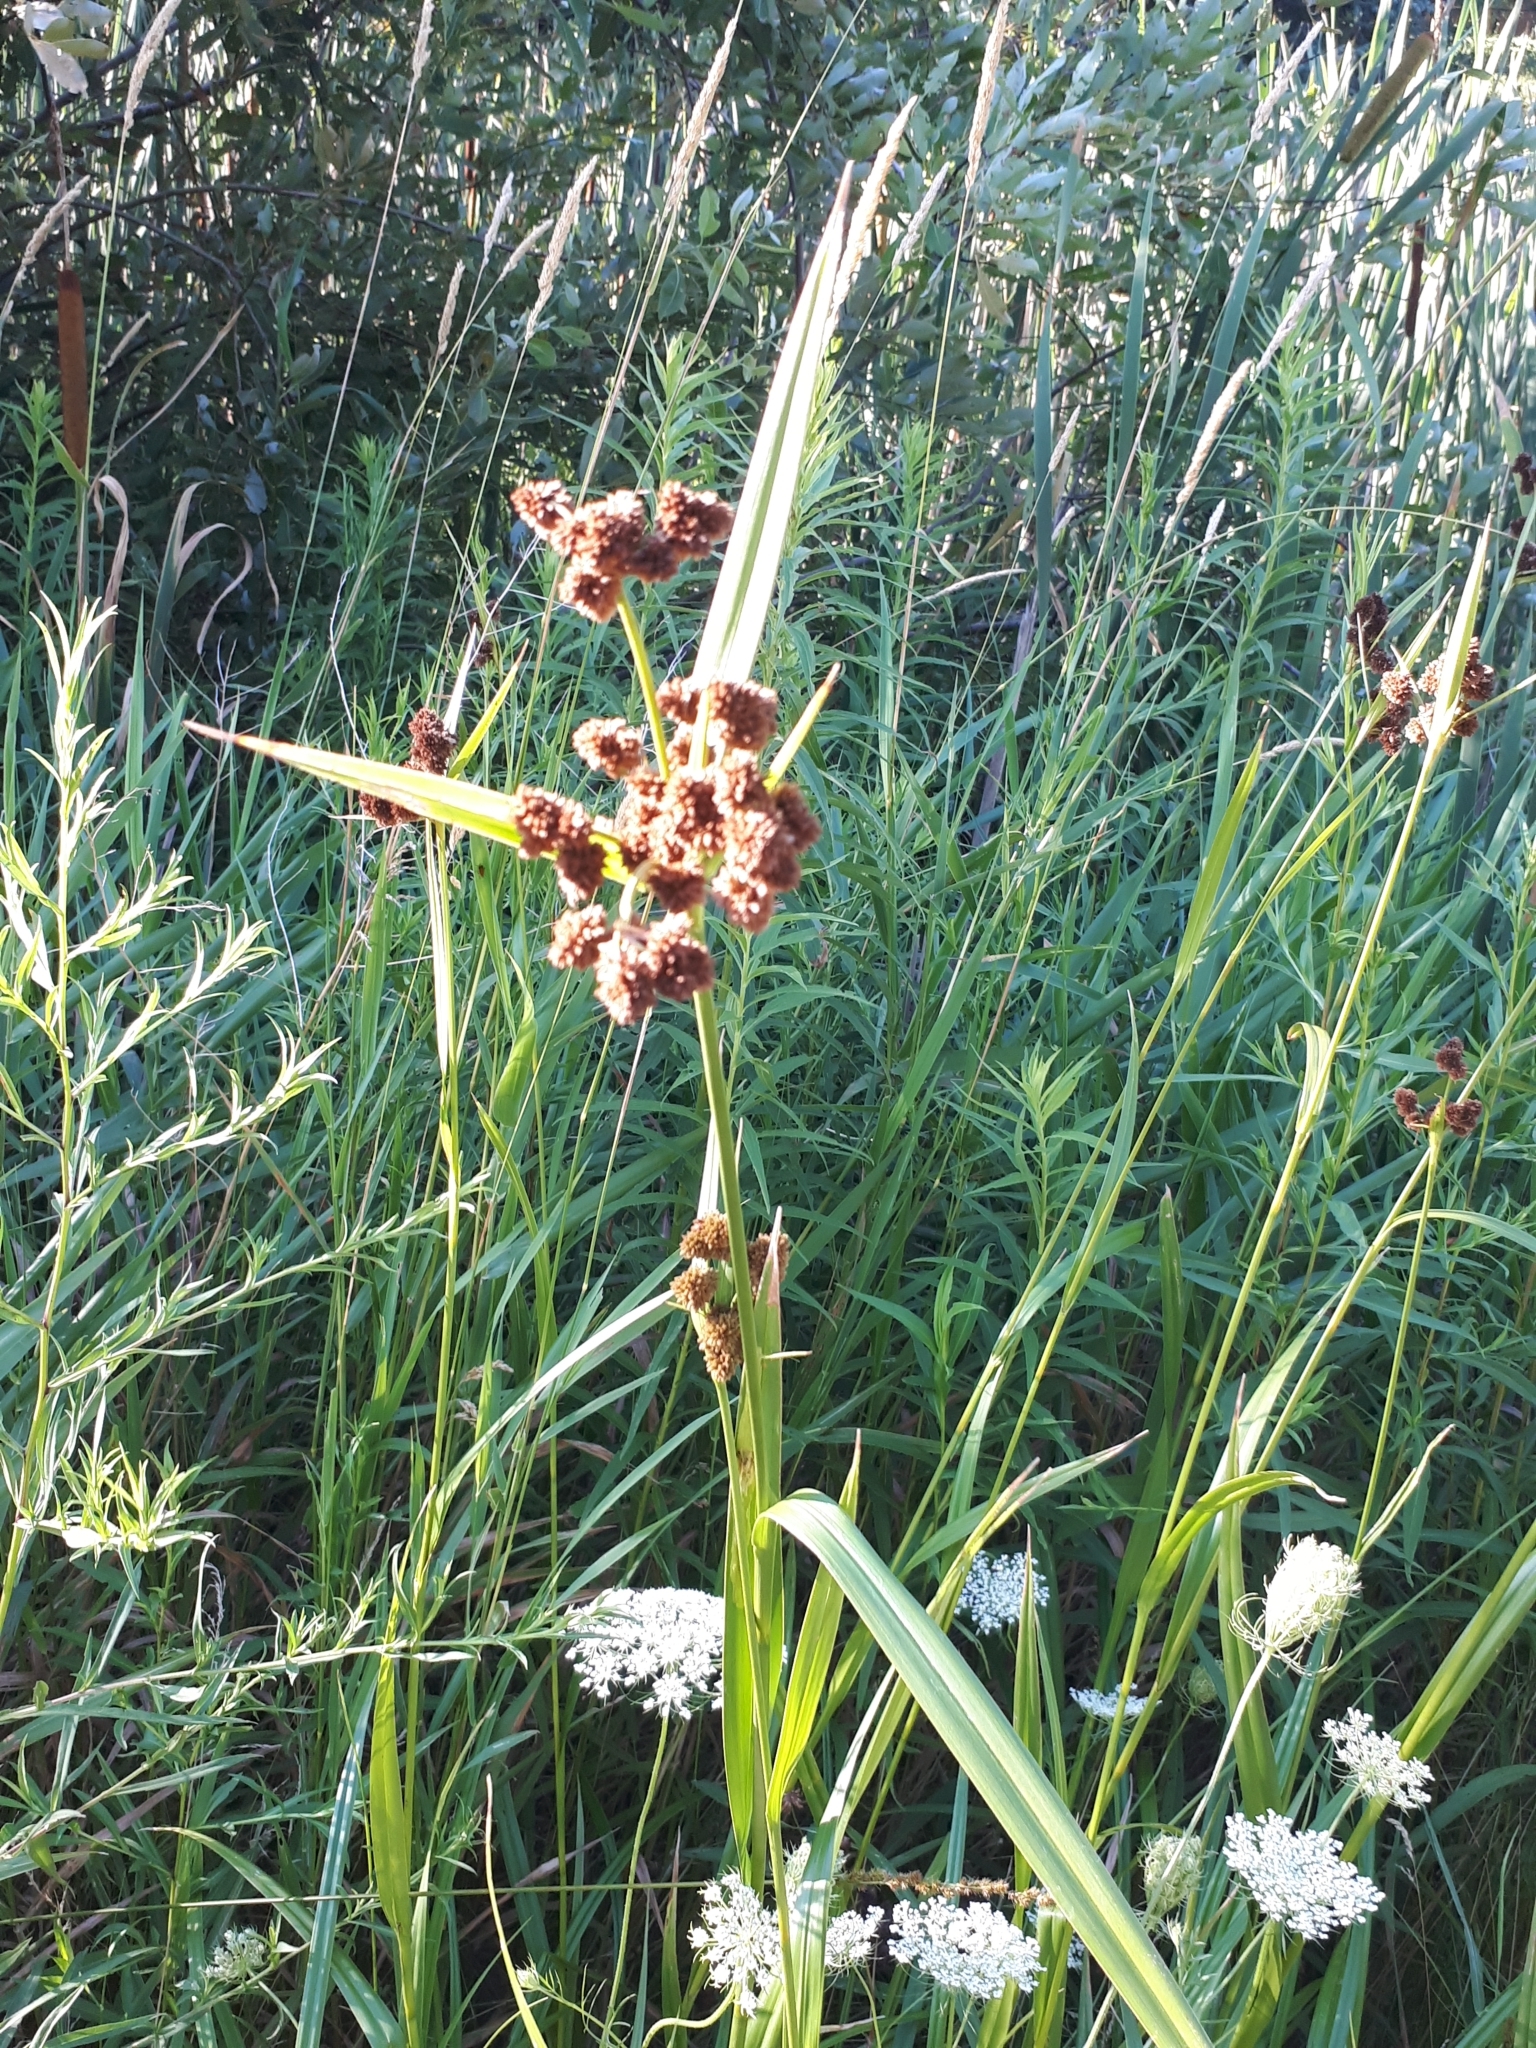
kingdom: Plantae
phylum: Tracheophyta
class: Liliopsida
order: Poales
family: Cyperaceae
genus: Scirpus
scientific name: Scirpus atrovirens
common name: Black bulrush
